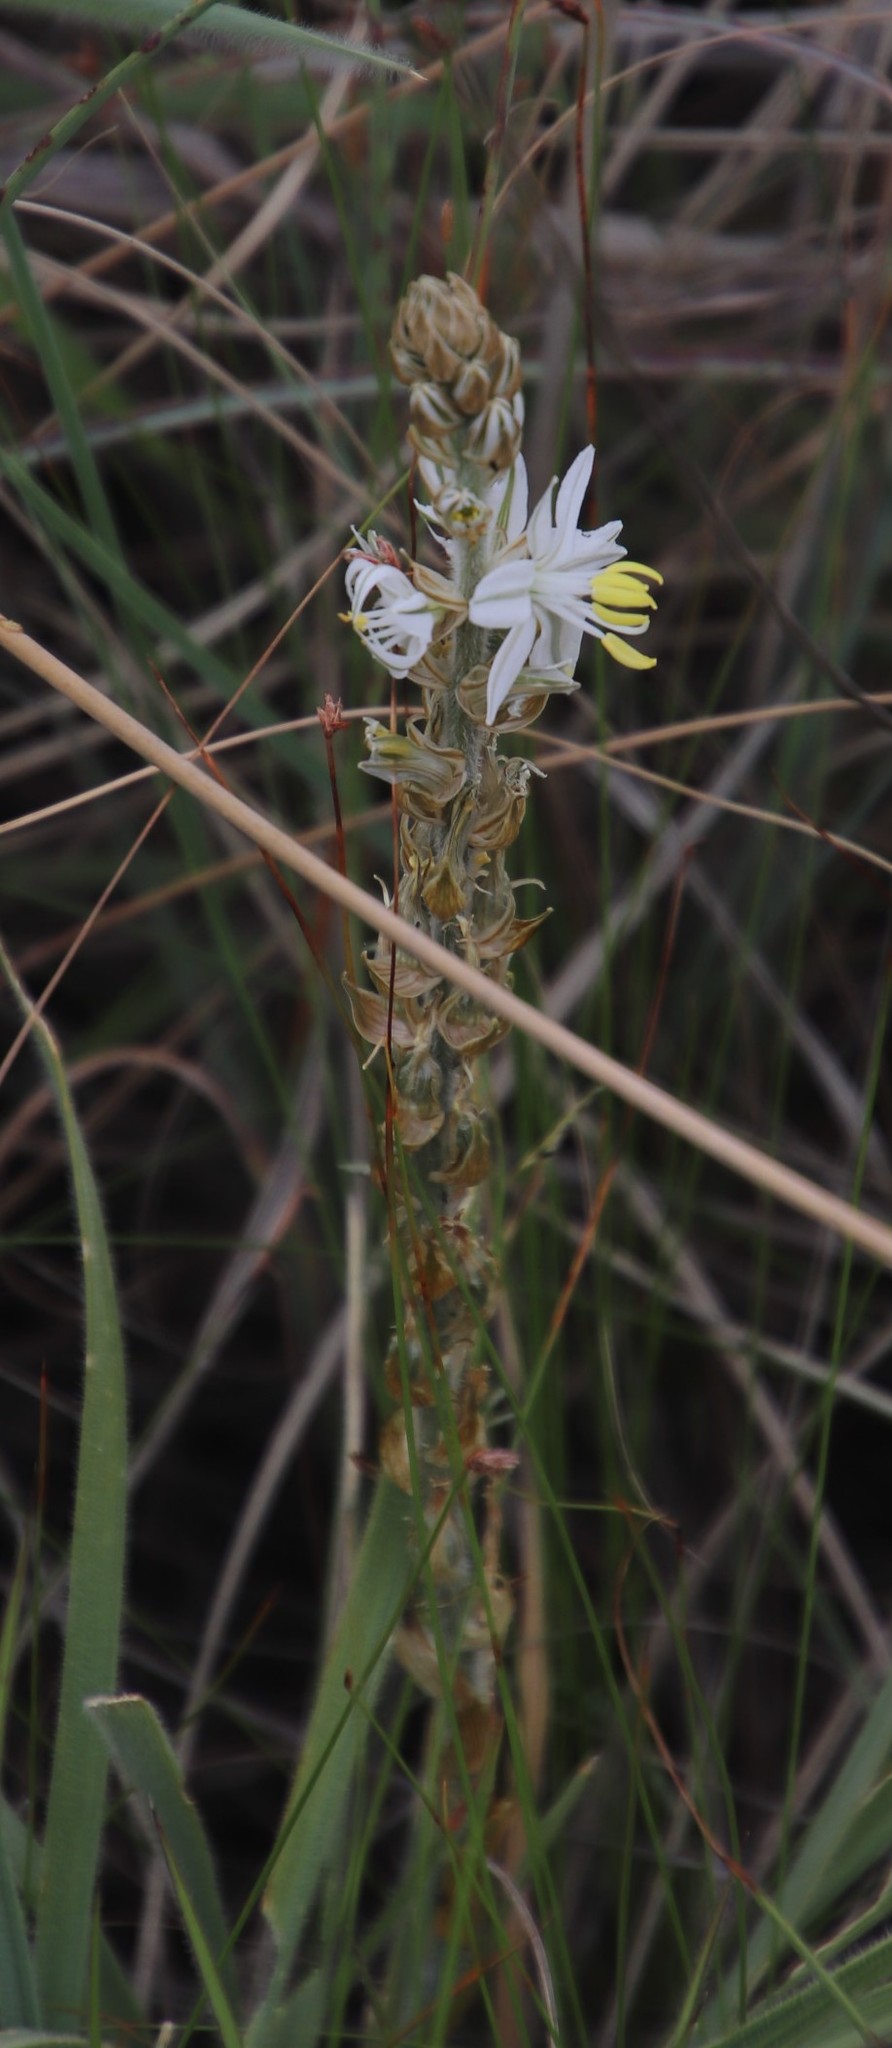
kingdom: Plantae
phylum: Tracheophyta
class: Liliopsida
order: Asparagales
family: Asparagaceae
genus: Chlorophytum
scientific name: Chlorophytum transvaalense
